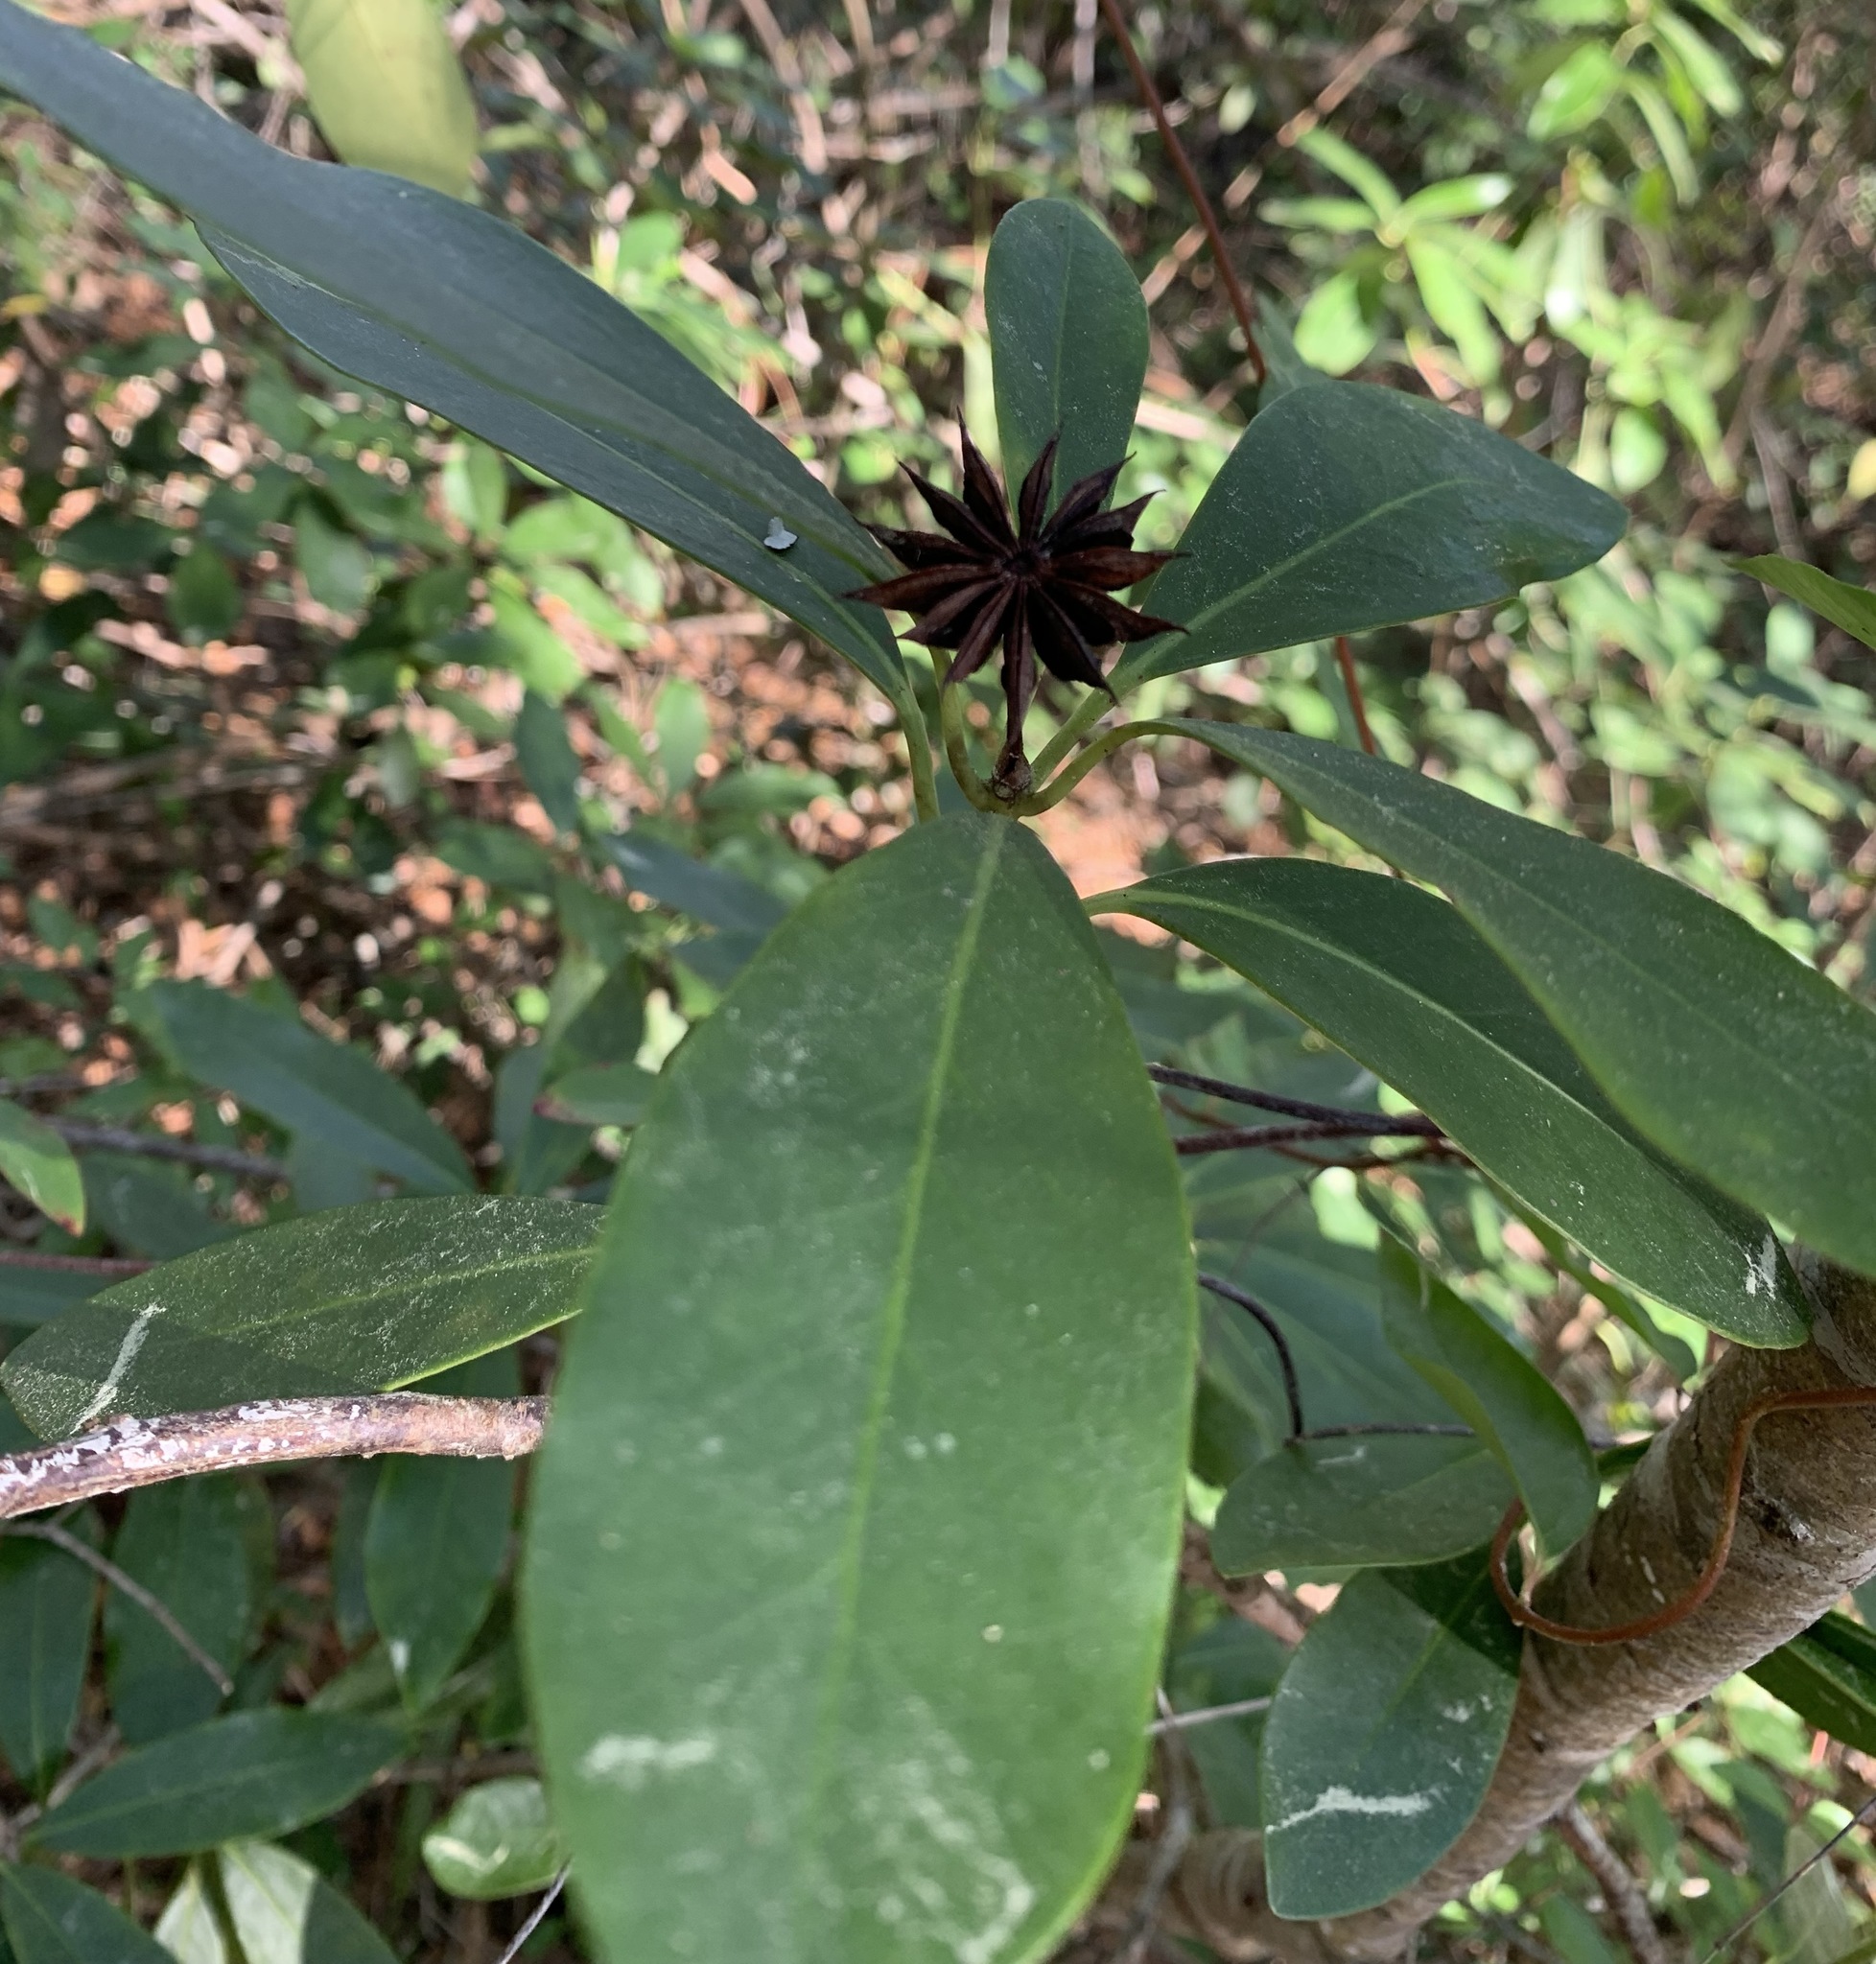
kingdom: Plantae
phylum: Tracheophyta
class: Magnoliopsida
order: Austrobaileyales
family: Schisandraceae
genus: Illicium
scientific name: Illicium floridanum
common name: Florida anisetree
